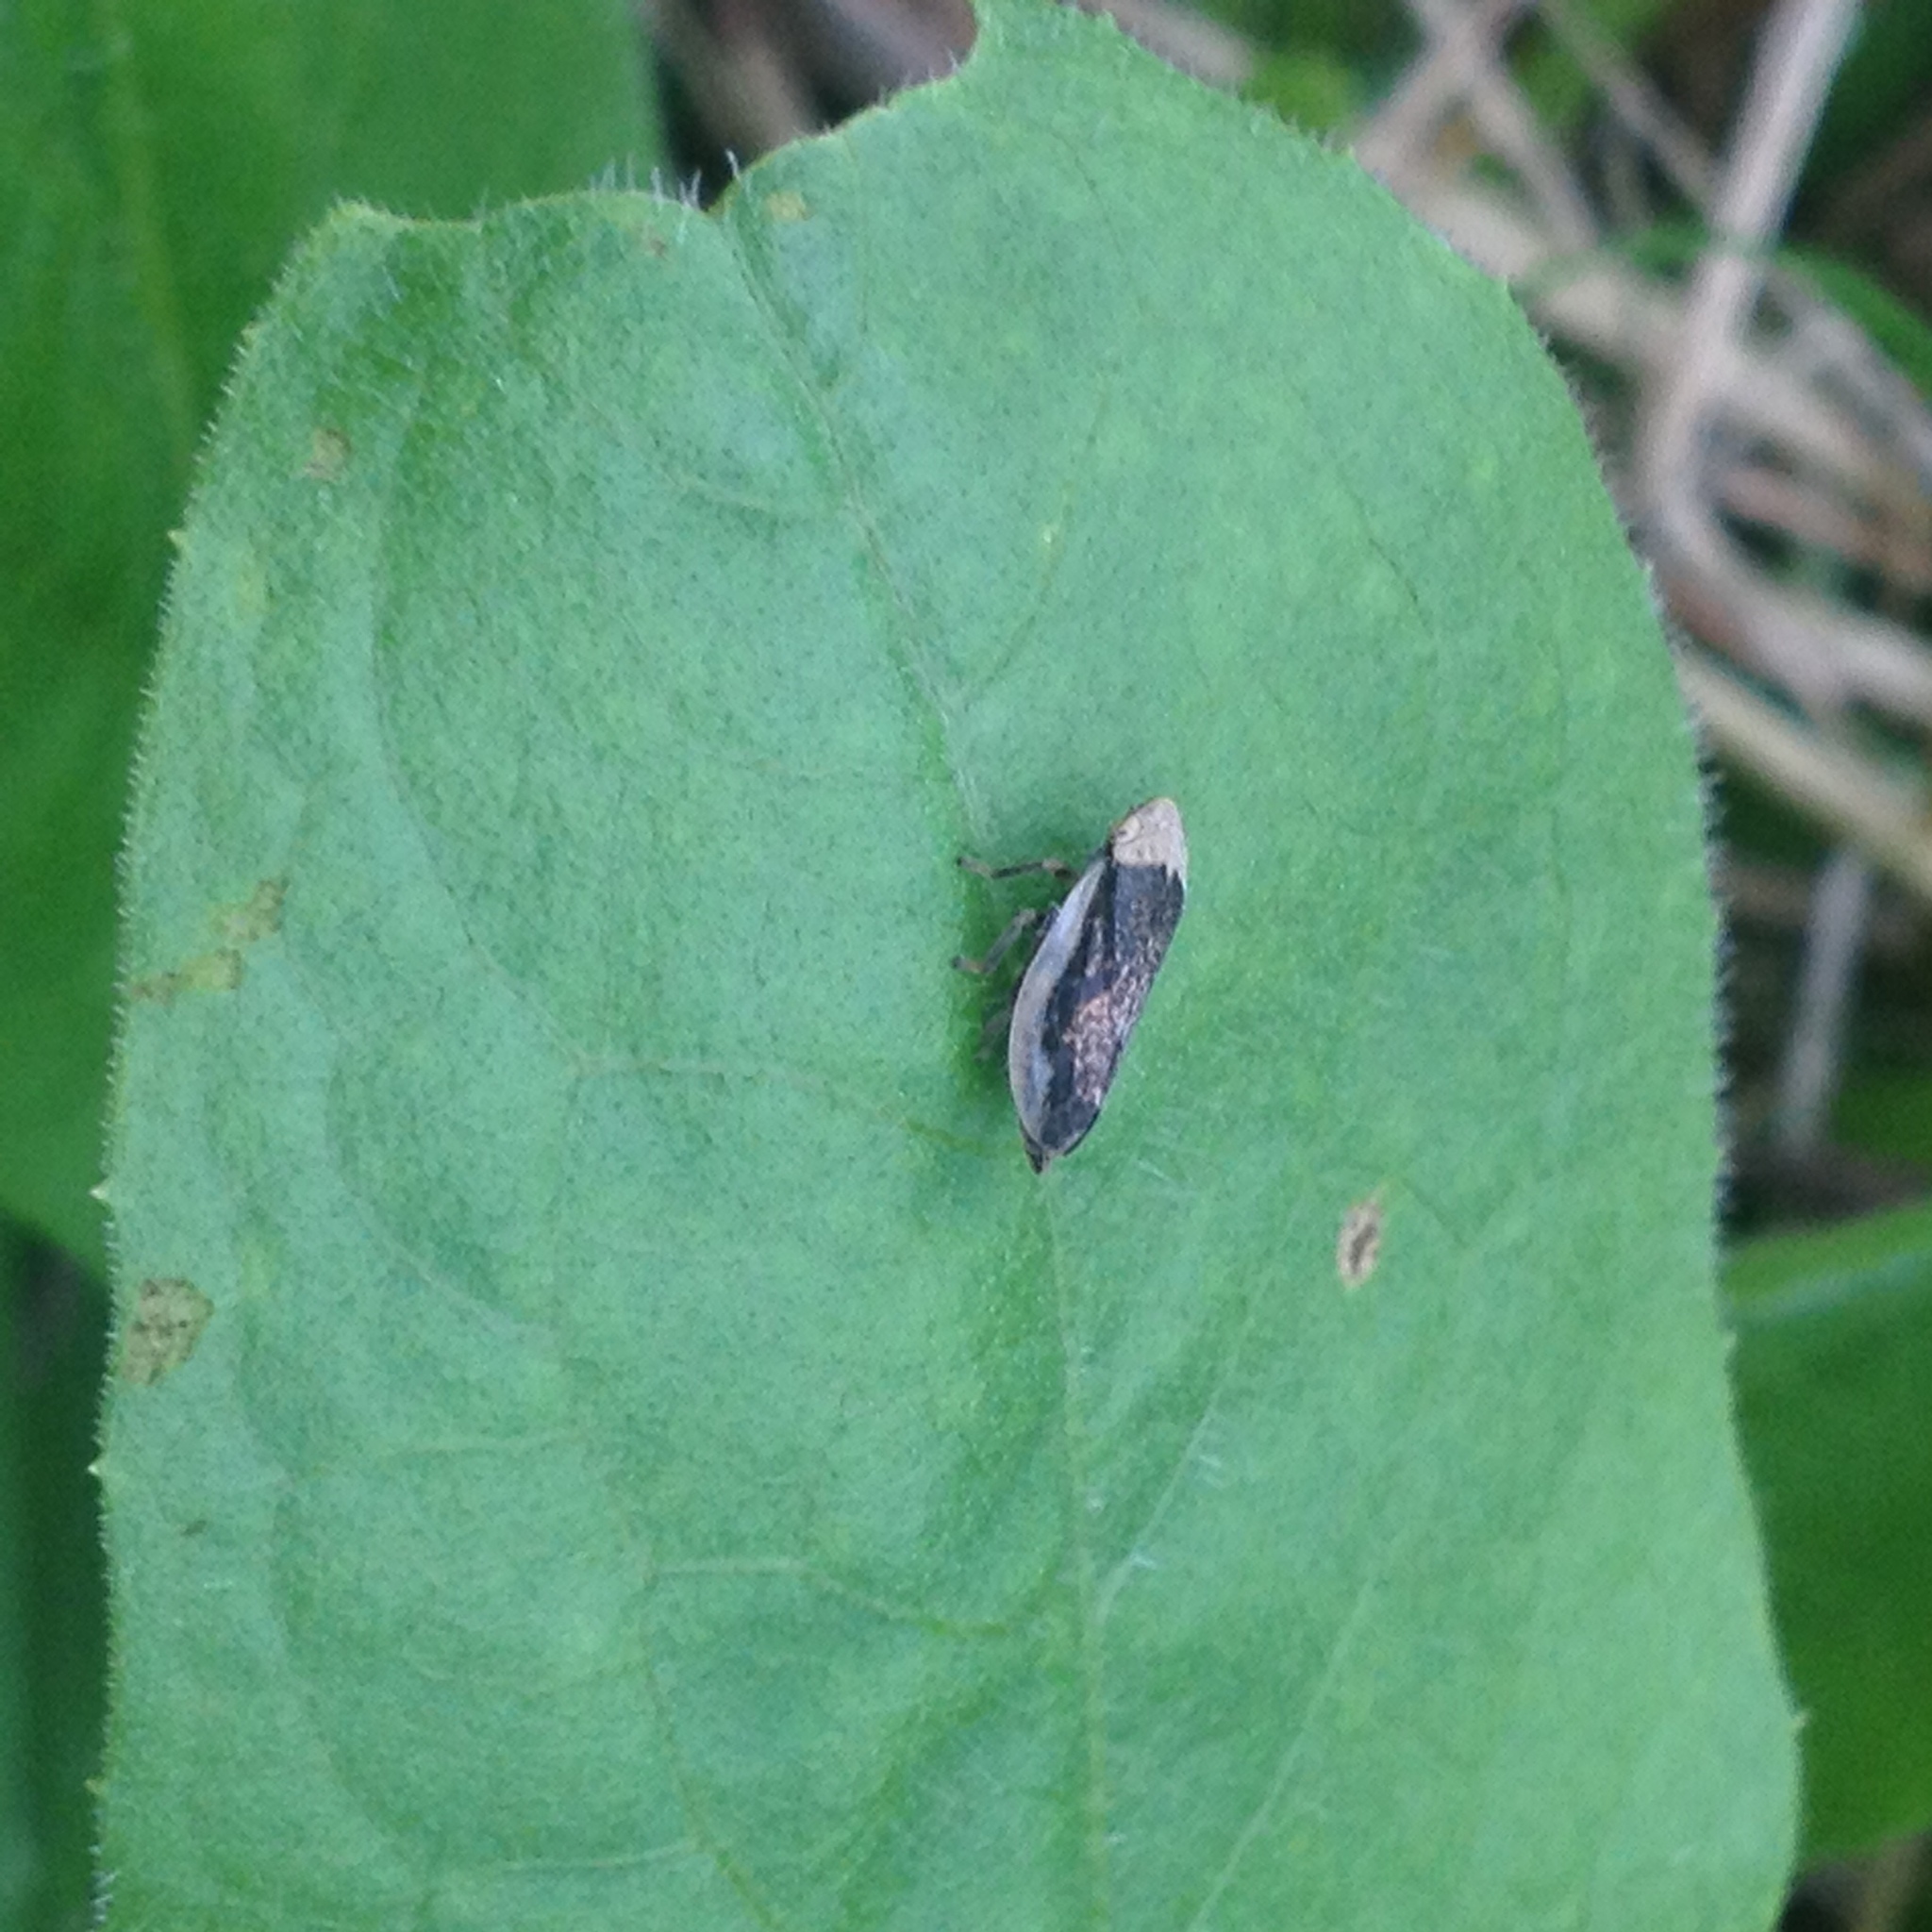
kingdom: Animalia
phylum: Arthropoda
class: Insecta
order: Hemiptera
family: Aphrophoridae
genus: Philaenus
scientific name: Philaenus spumarius
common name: Meadow spittlebug
